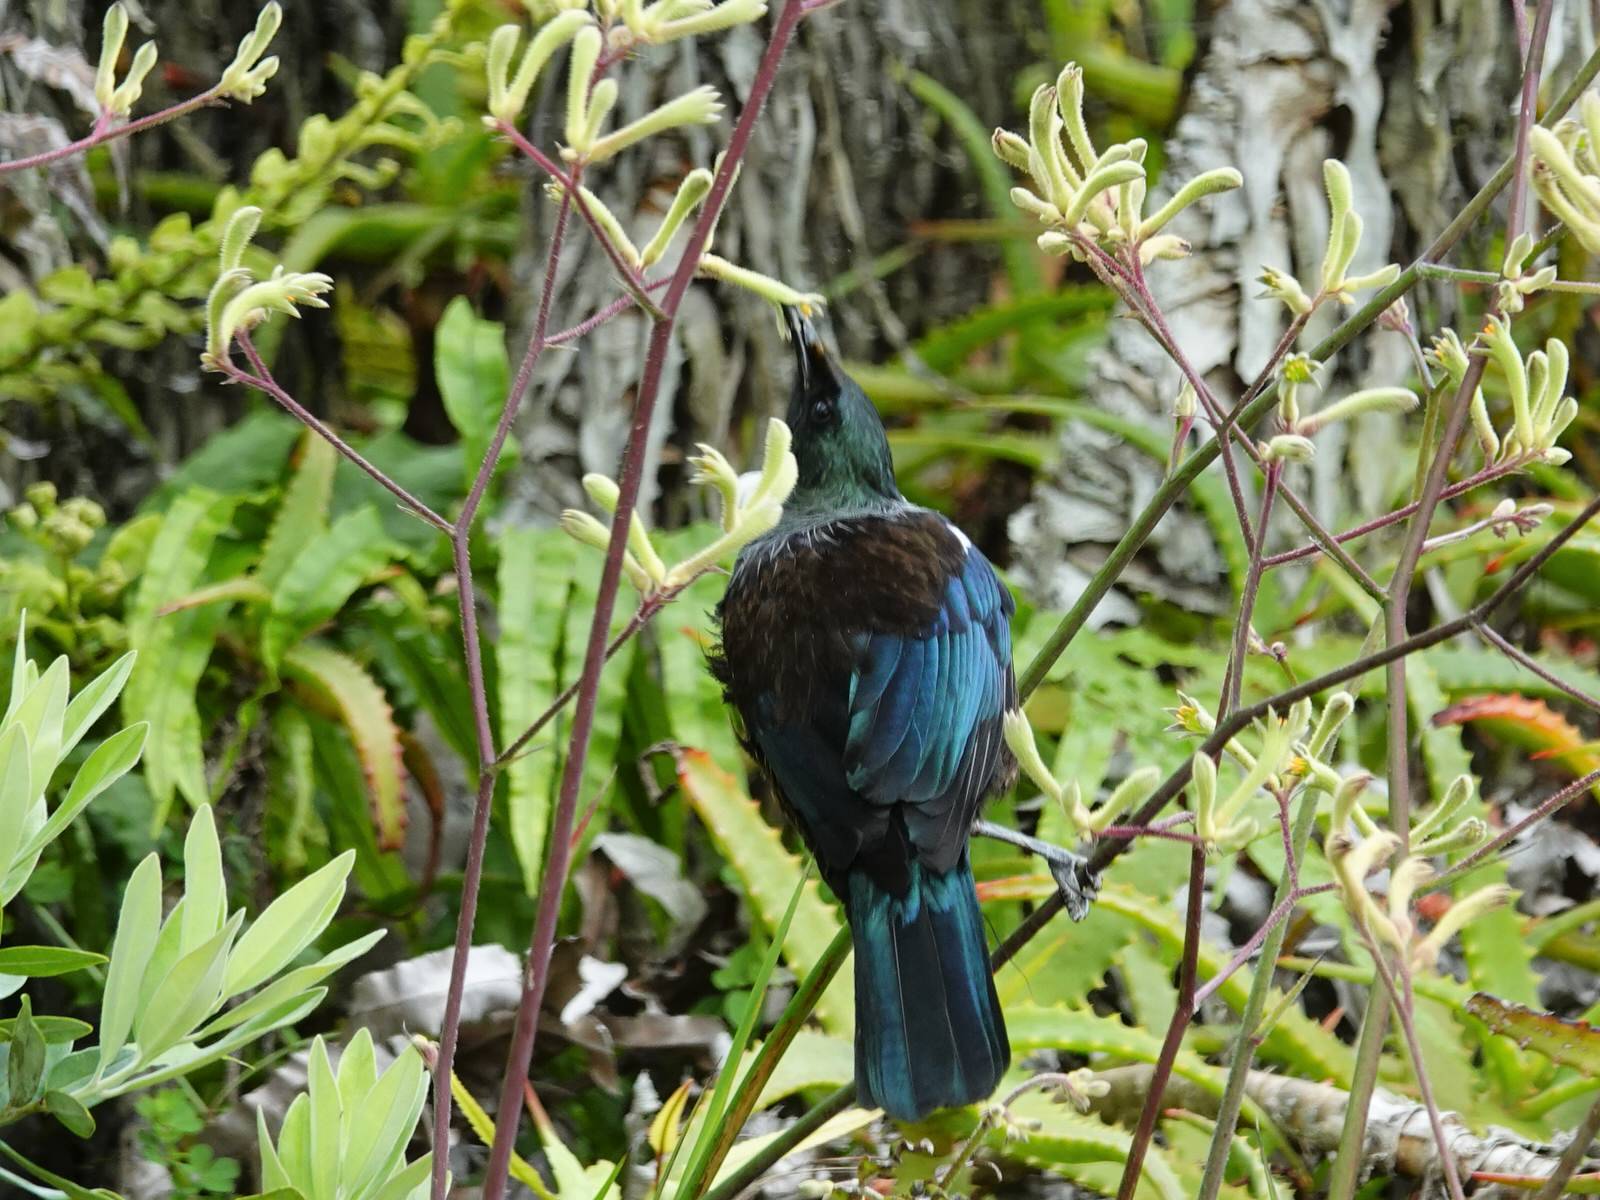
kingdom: Animalia
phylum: Chordata
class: Aves
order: Passeriformes
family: Meliphagidae
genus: Prosthemadera
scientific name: Prosthemadera novaeseelandiae
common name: Tui
